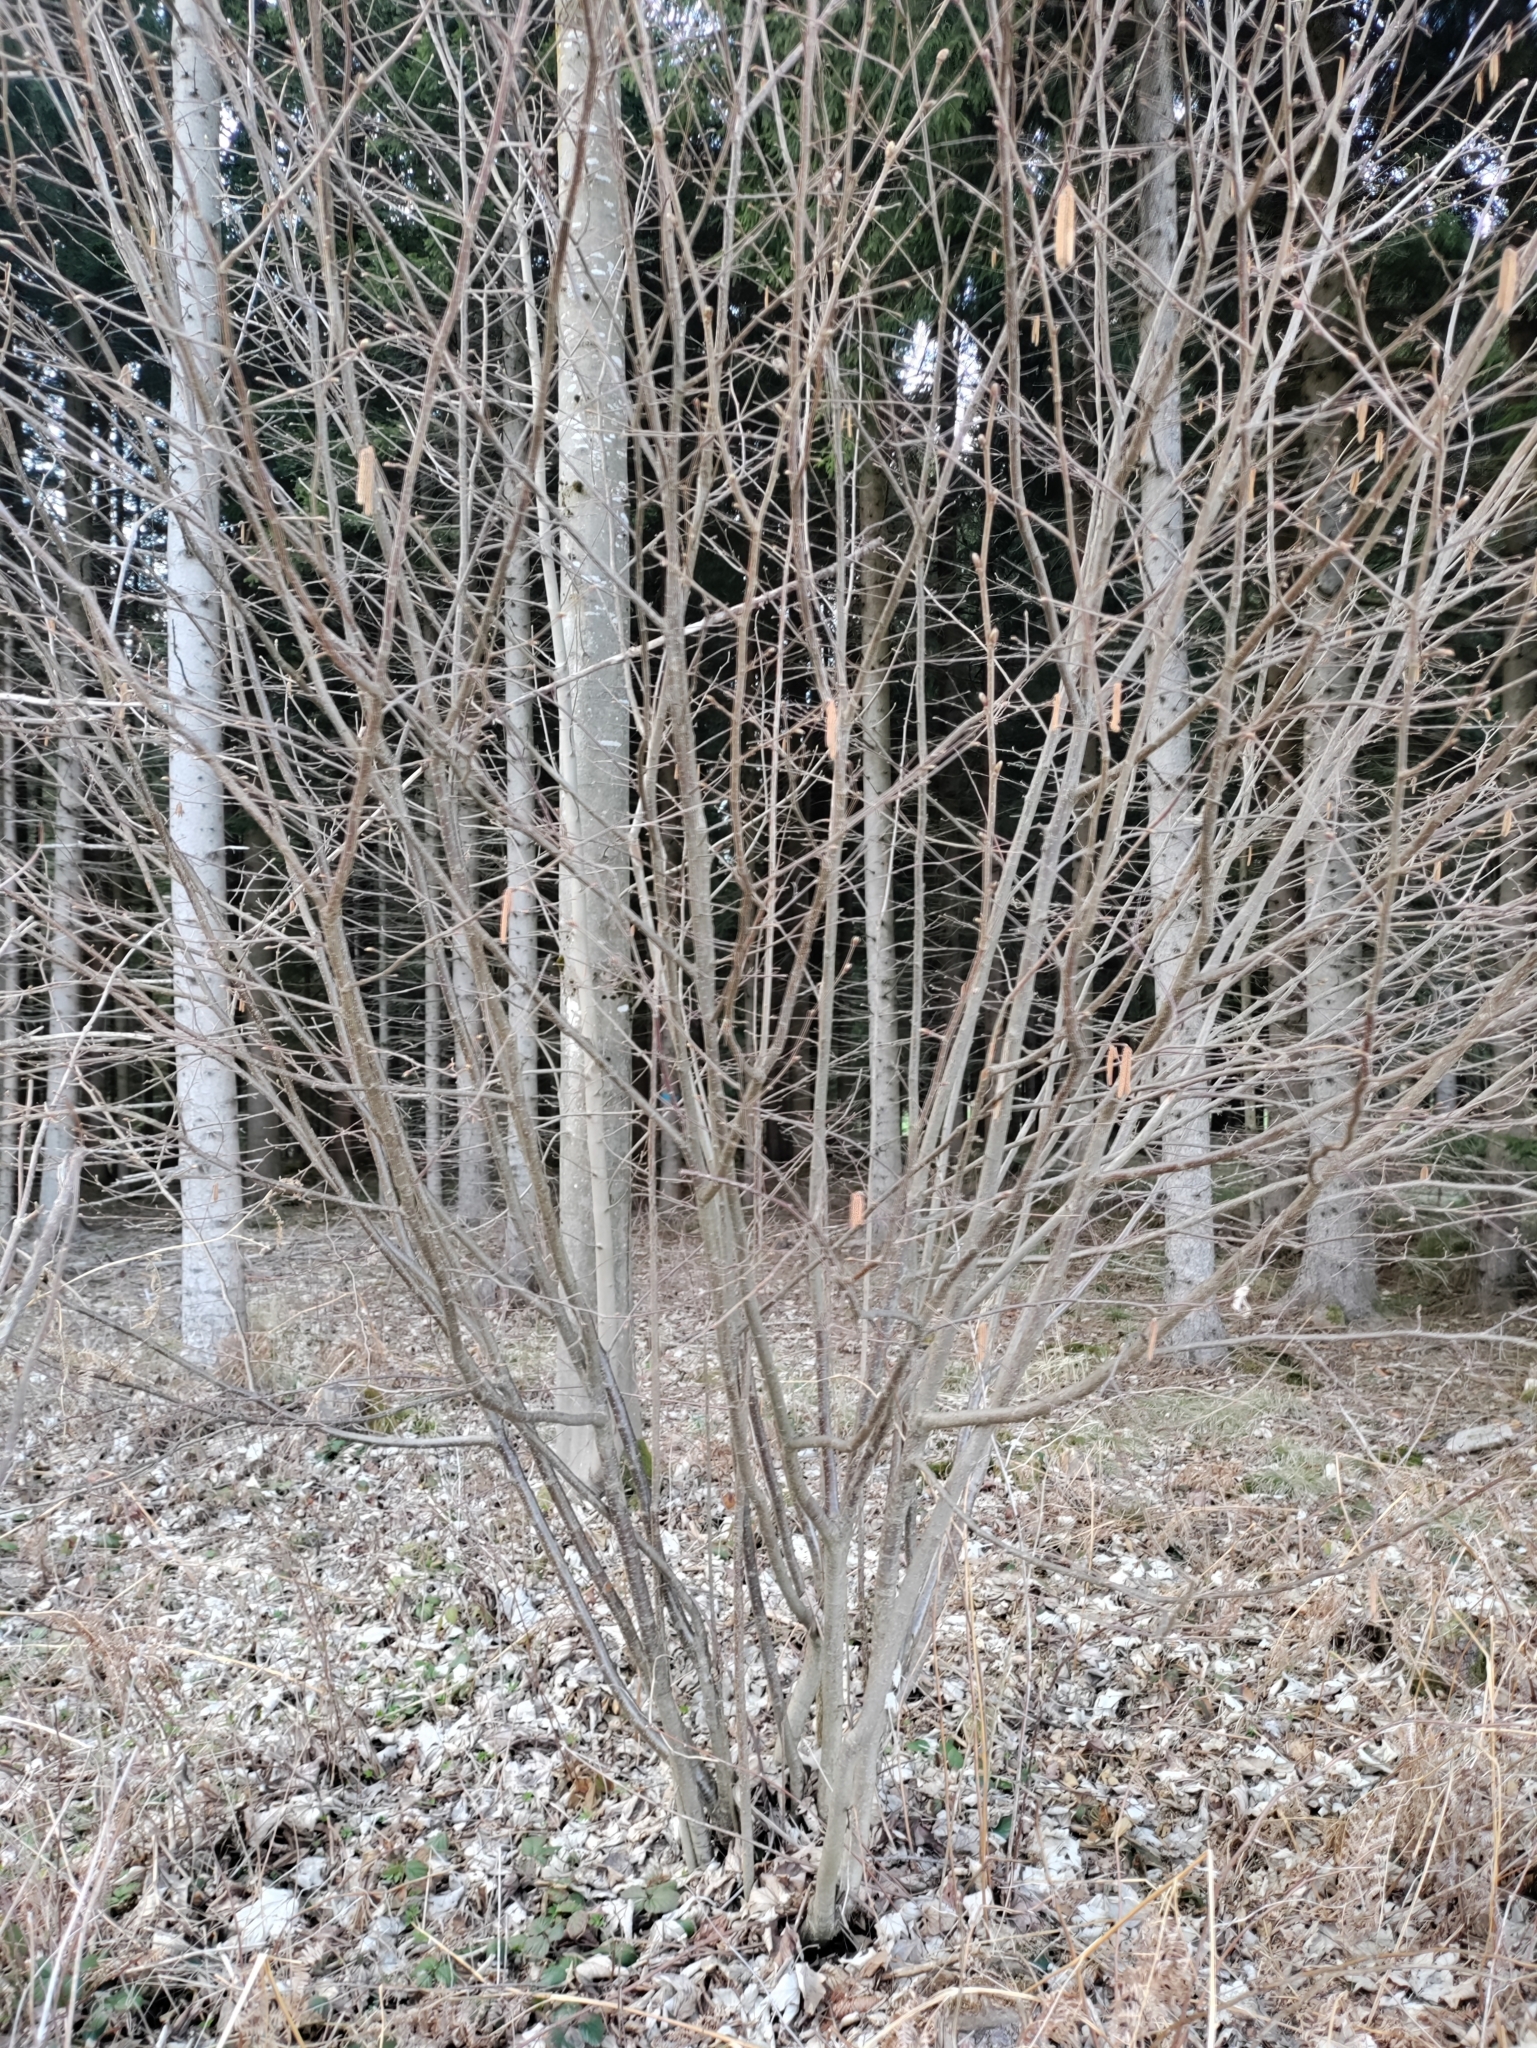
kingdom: Plantae
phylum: Tracheophyta
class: Magnoliopsida
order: Fagales
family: Betulaceae
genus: Corylus
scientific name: Corylus avellana
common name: European hazel
